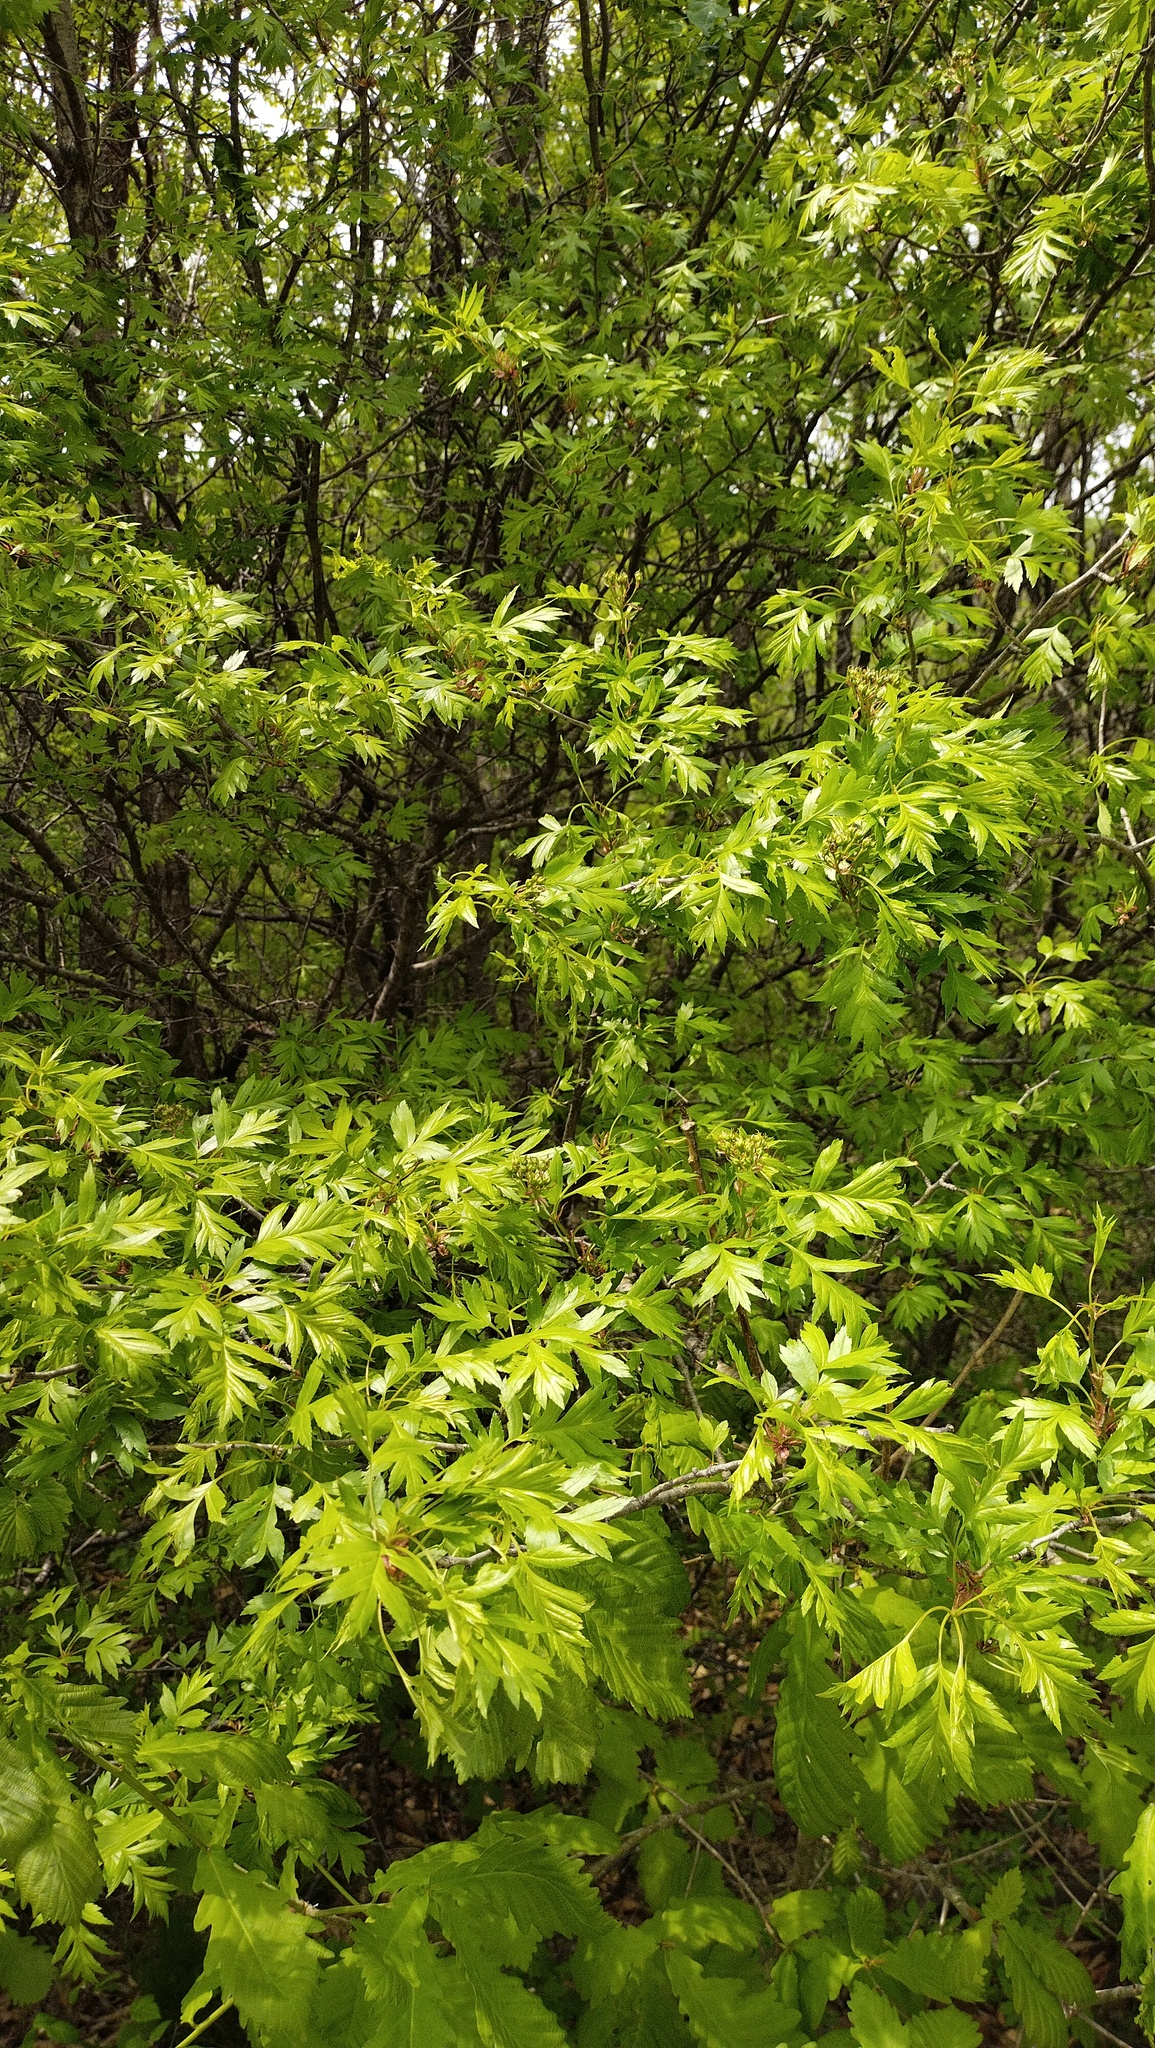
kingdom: Plantae
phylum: Tracheophyta
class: Magnoliopsida
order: Rosales
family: Rosaceae
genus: Crataegus
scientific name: Crataegus pinnatifida
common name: Chinese haw
